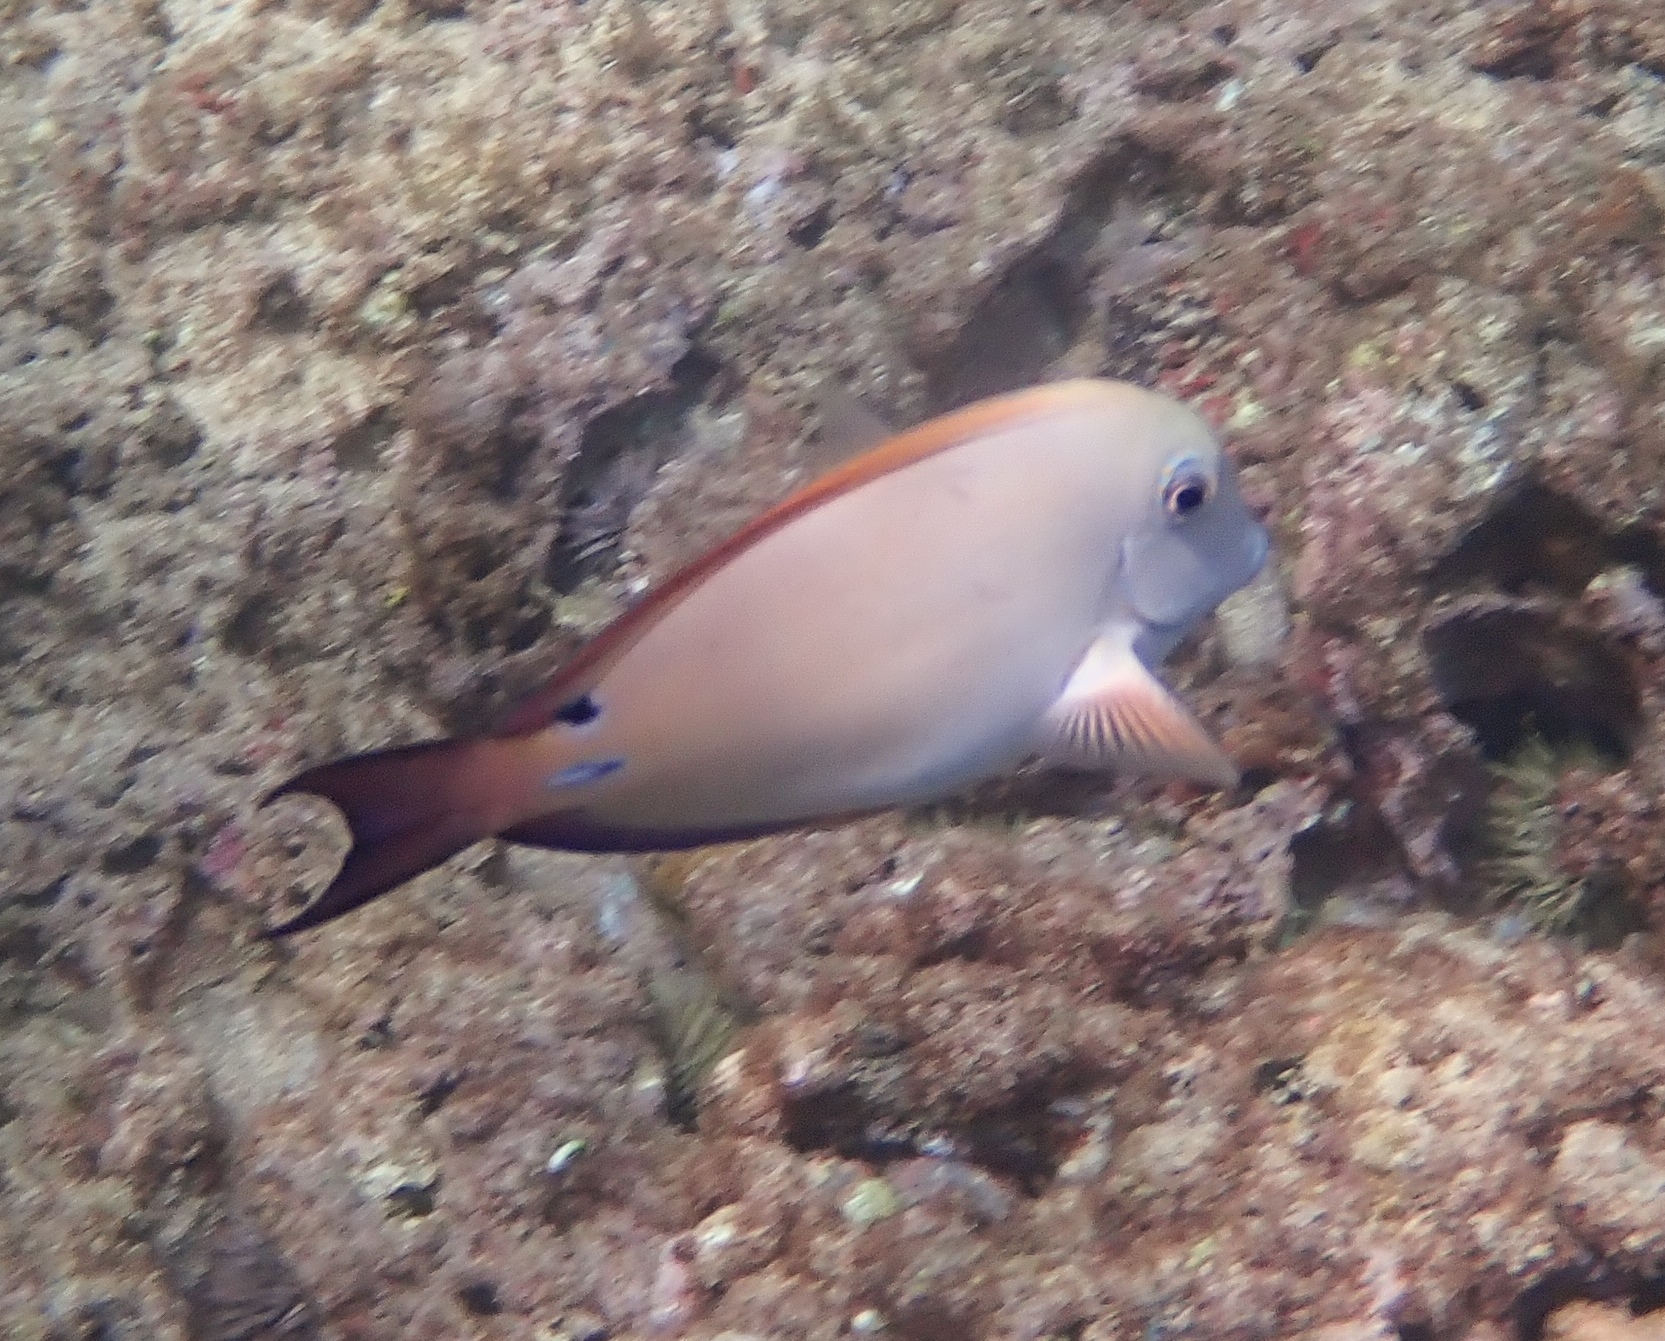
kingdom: Animalia
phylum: Chordata
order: Perciformes
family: Acanthuridae
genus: Acanthurus
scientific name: Acanthurus nigrofuscus
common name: Blackspot surgeonfish
